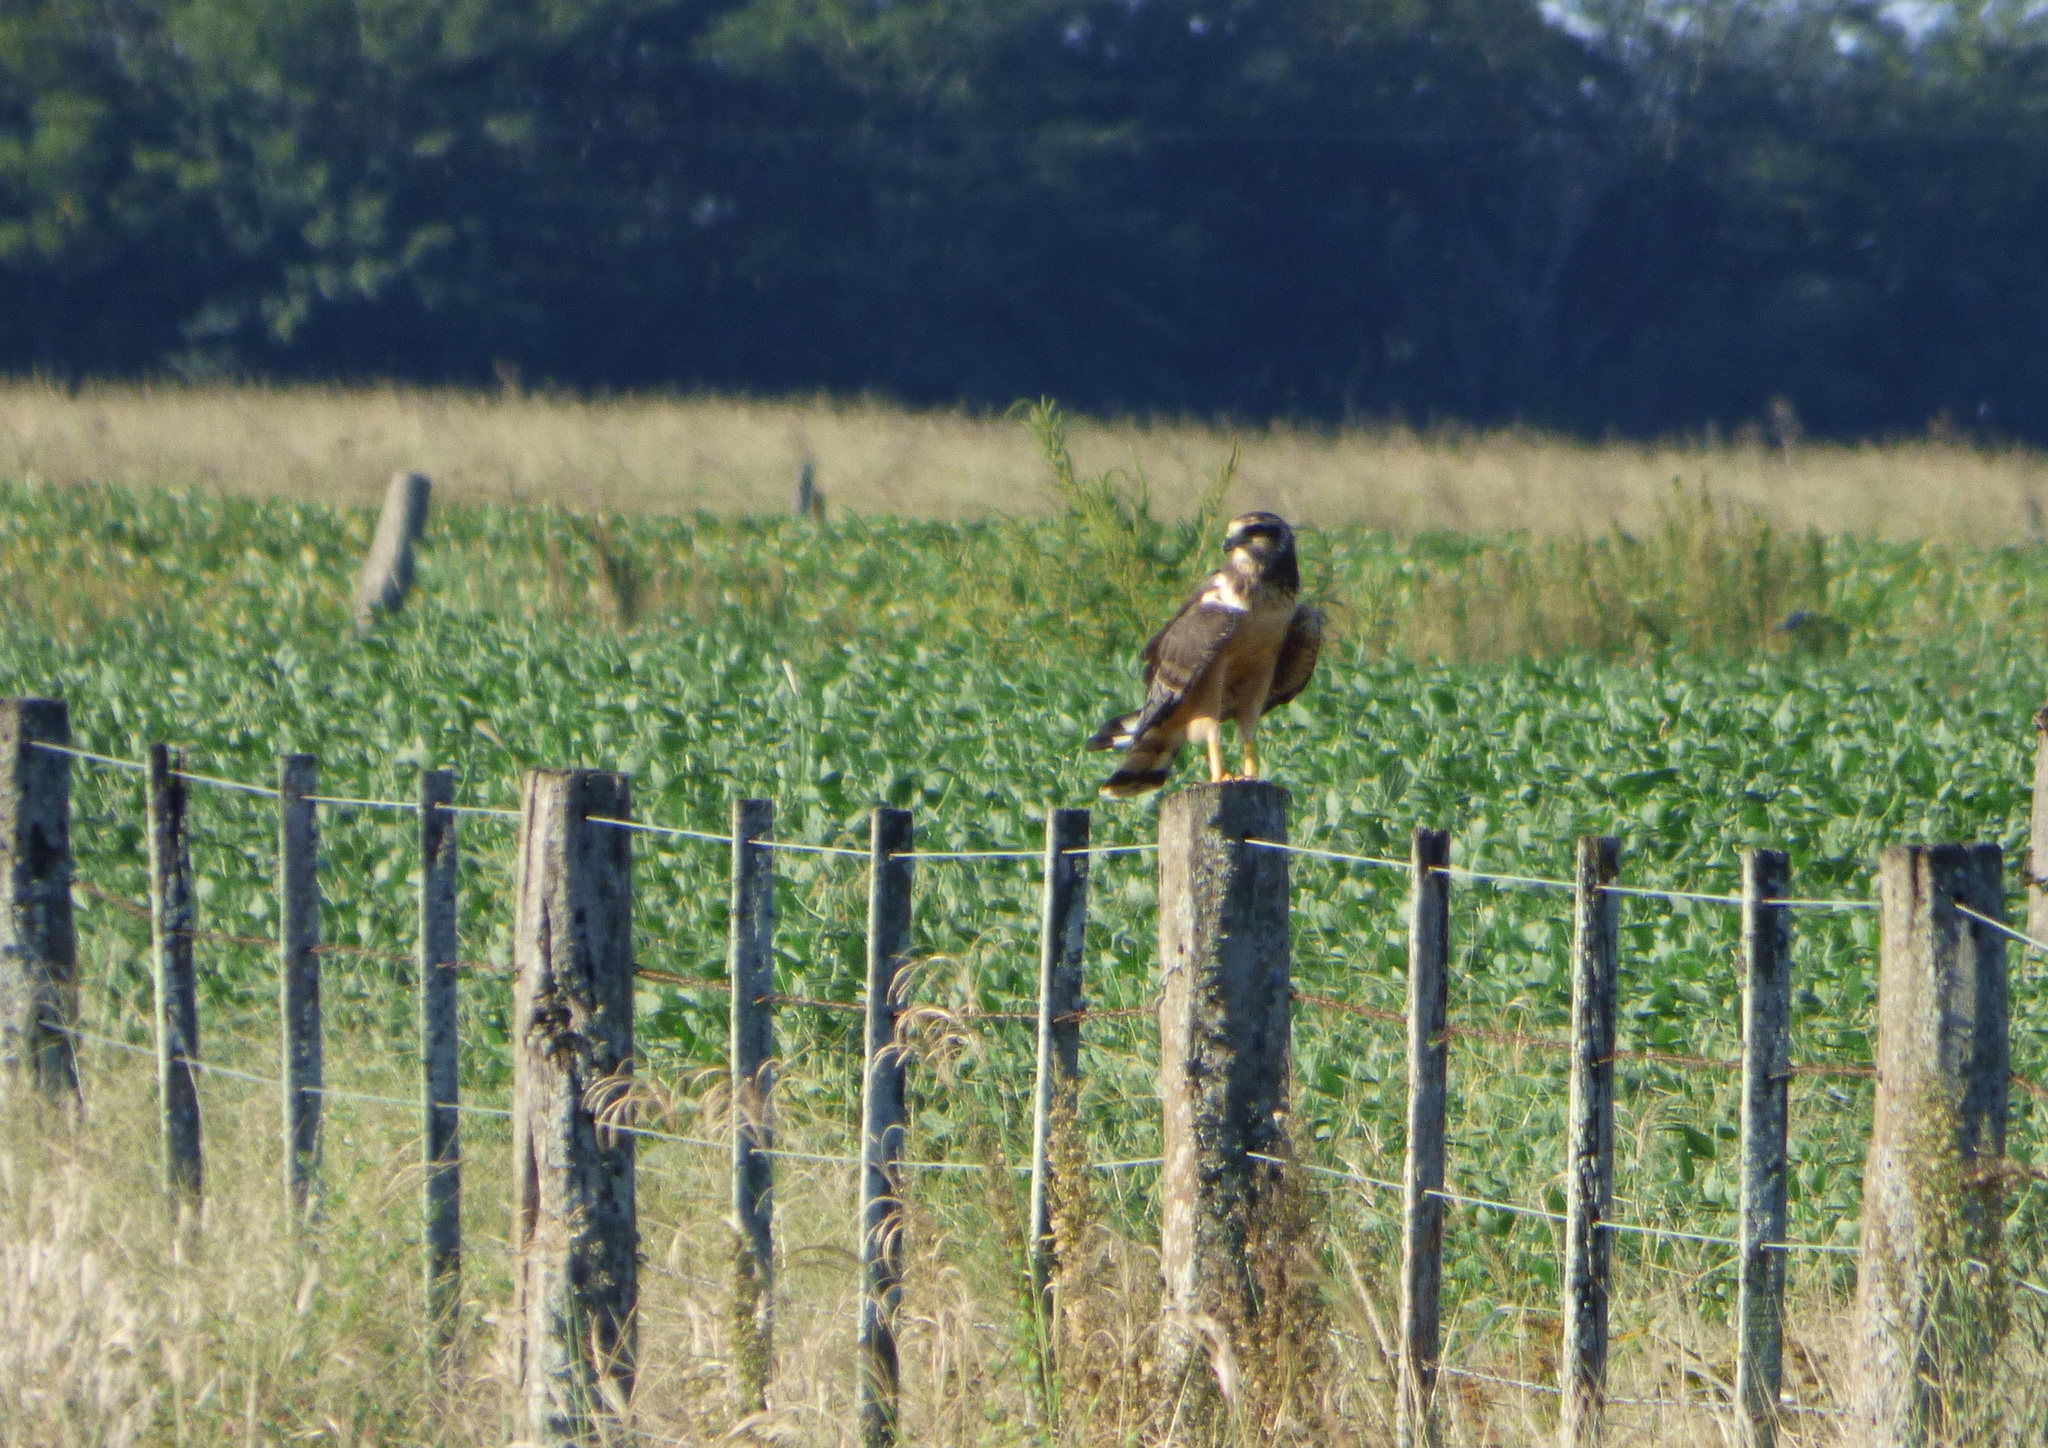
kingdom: Animalia
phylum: Chordata
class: Aves
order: Accipitriformes
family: Accipitridae
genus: Circus
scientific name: Circus buffoni
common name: Long-winged harrier
